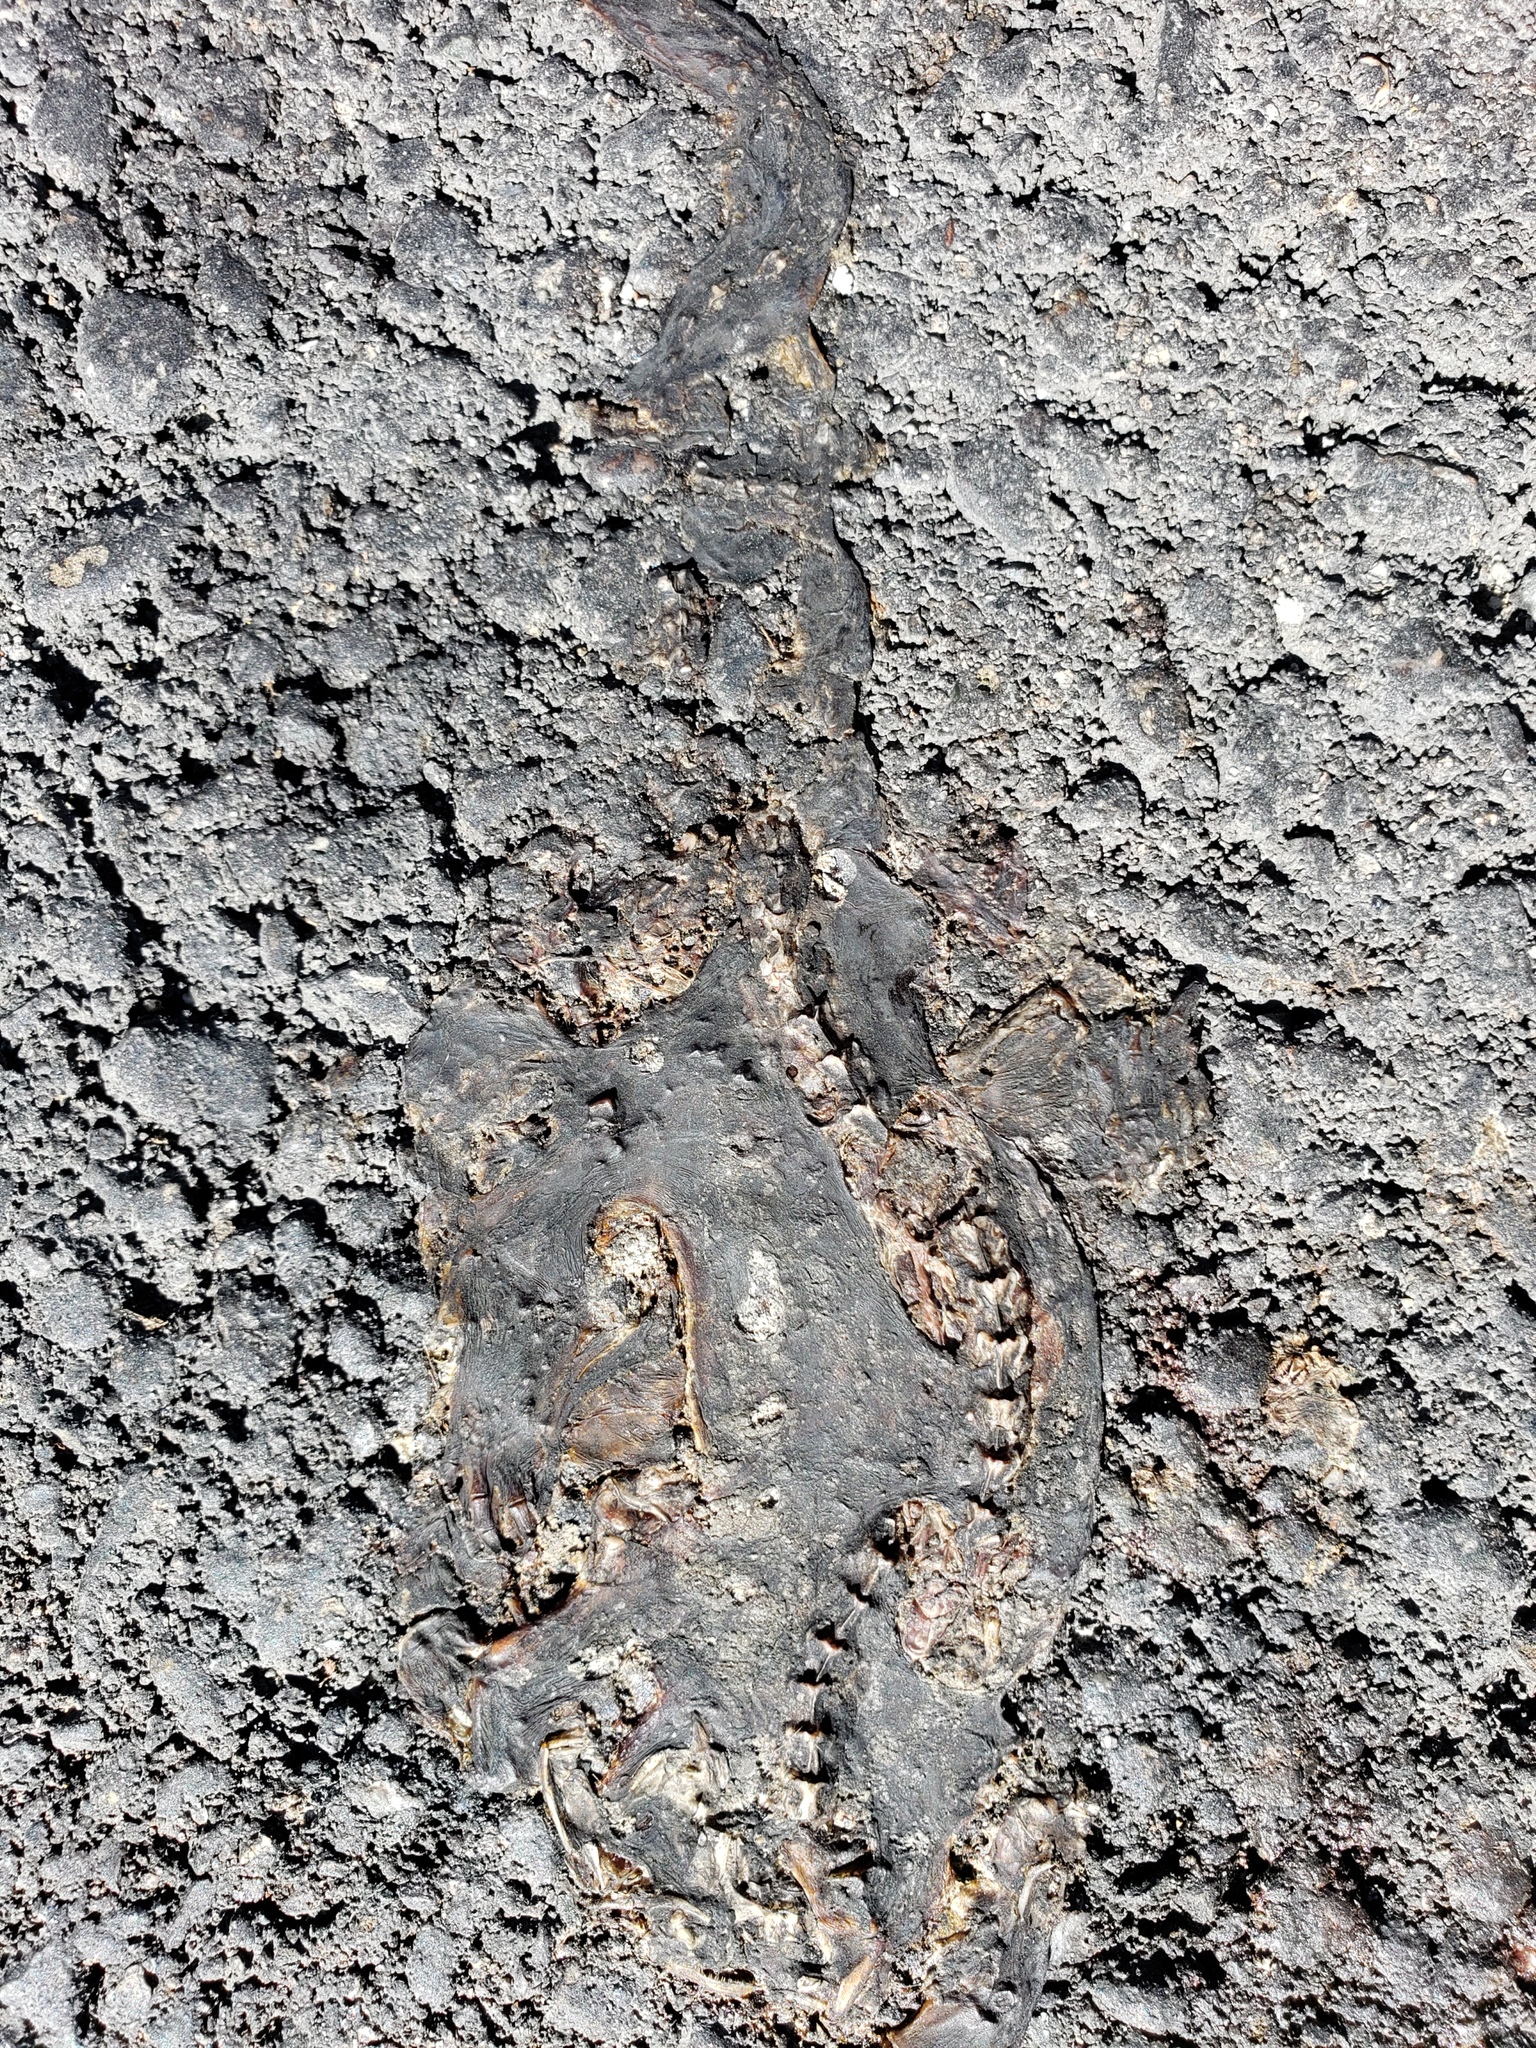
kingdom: Animalia
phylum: Chordata
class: Amphibia
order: Caudata
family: Salamandridae
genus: Taricha
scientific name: Taricha
